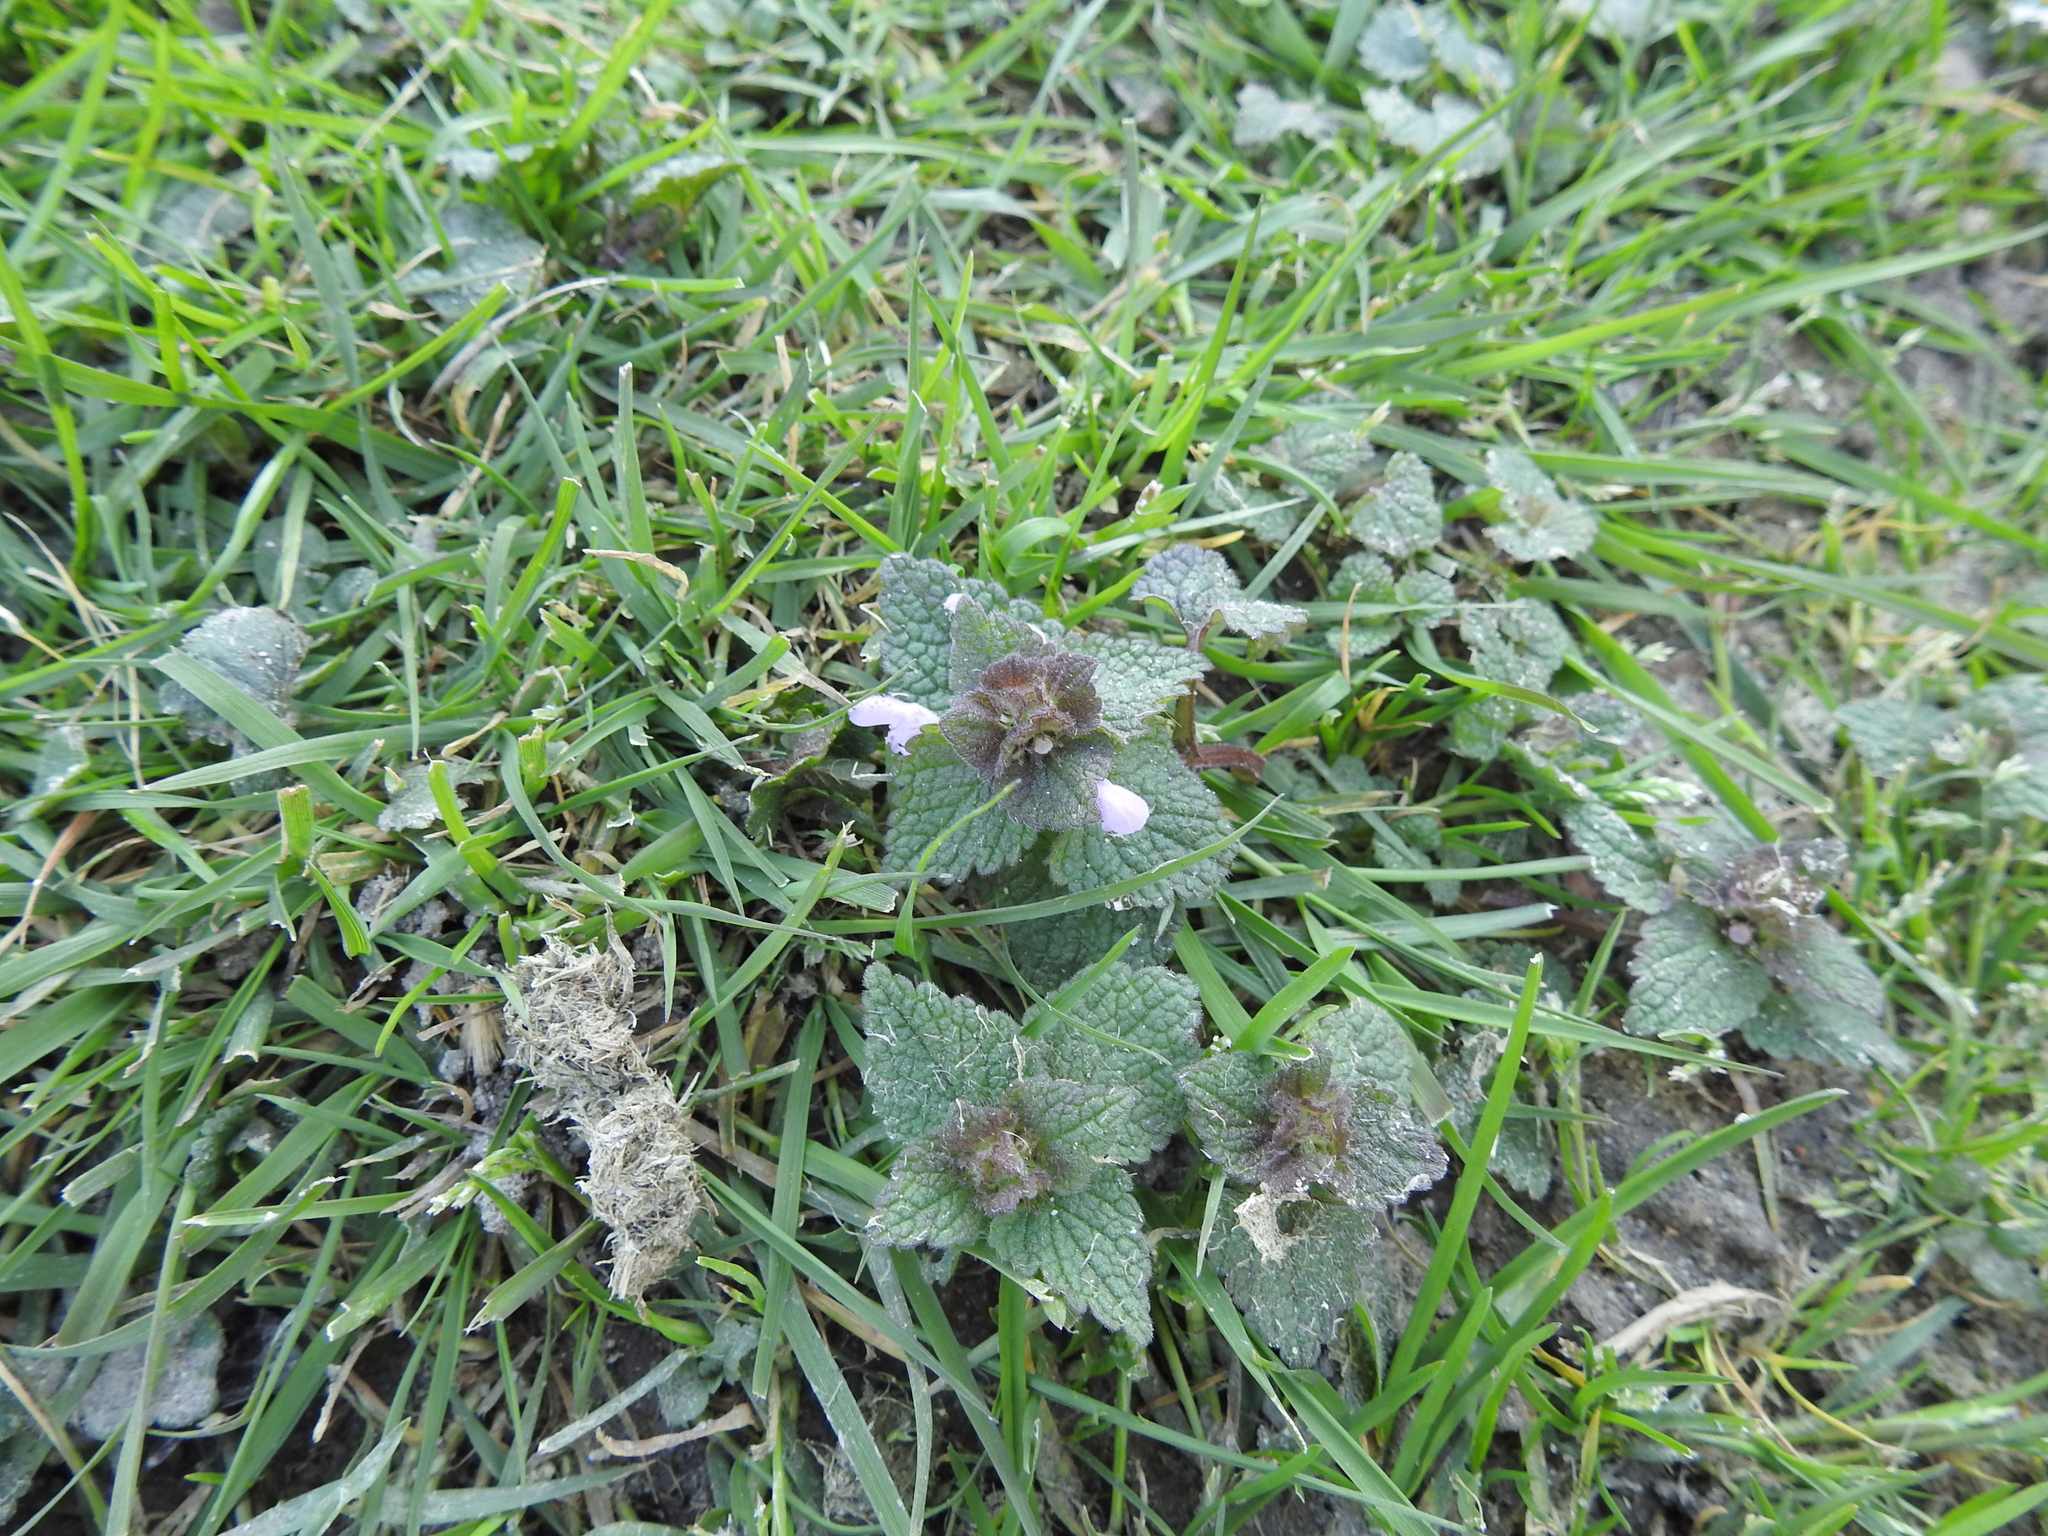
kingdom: Plantae
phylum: Tracheophyta
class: Magnoliopsida
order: Lamiales
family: Lamiaceae
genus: Lamium
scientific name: Lamium purpureum
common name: Red dead-nettle
